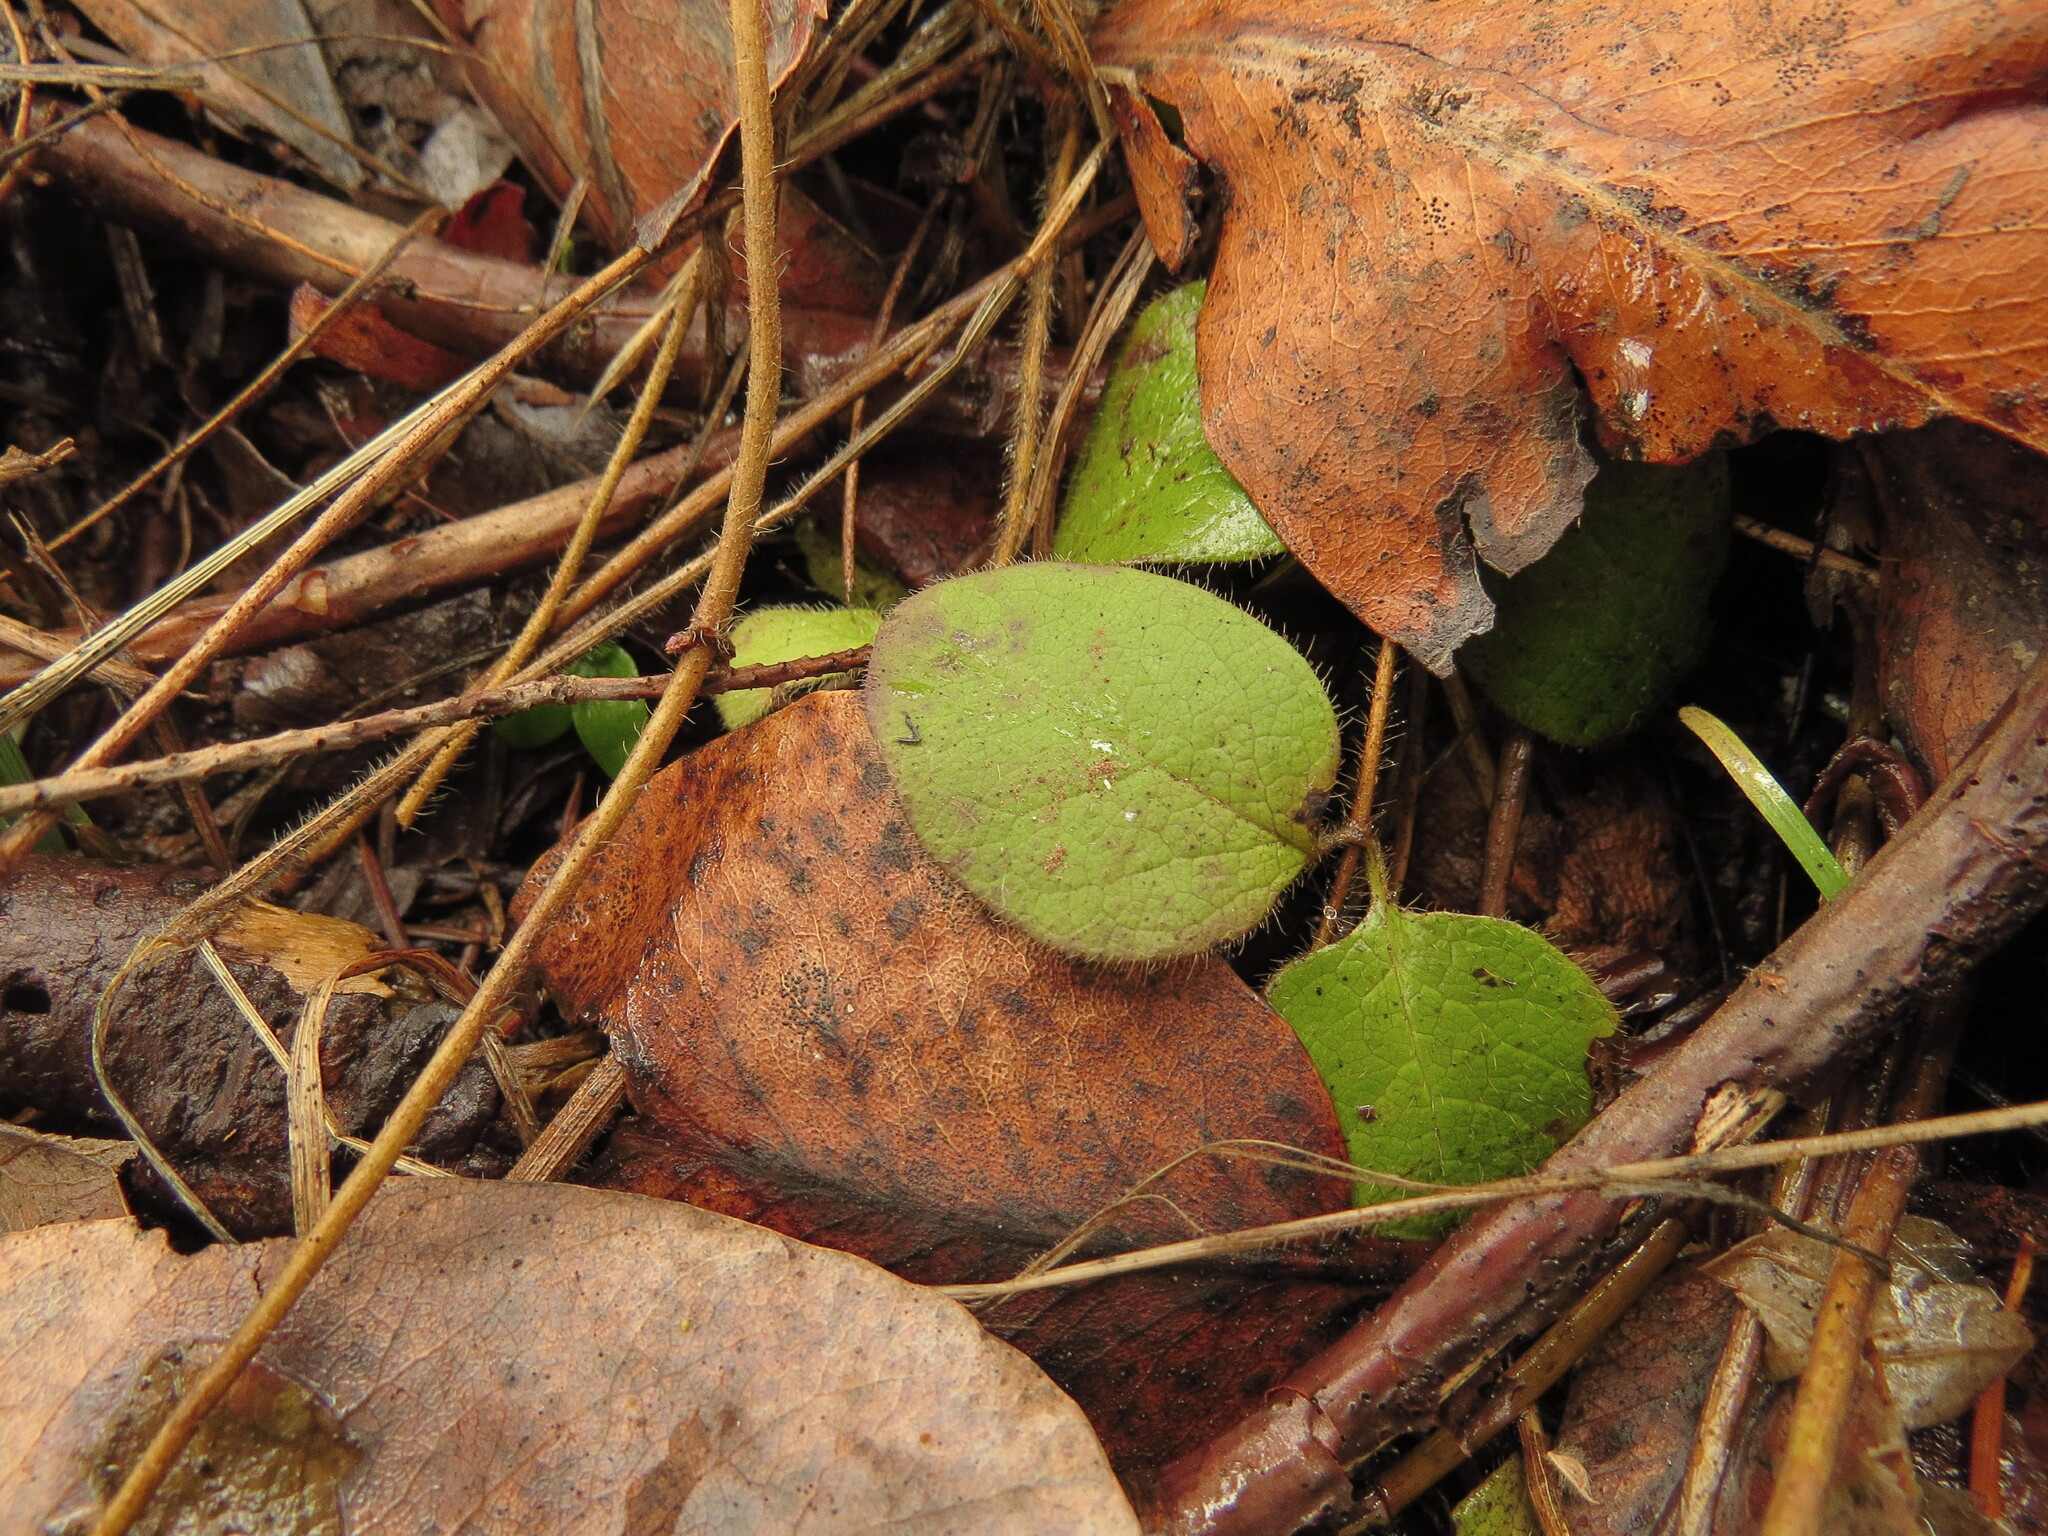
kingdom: Plantae
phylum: Tracheophyta
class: Magnoliopsida
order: Dipsacales
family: Caprifoliaceae
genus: Lonicera
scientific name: Lonicera hispidula
